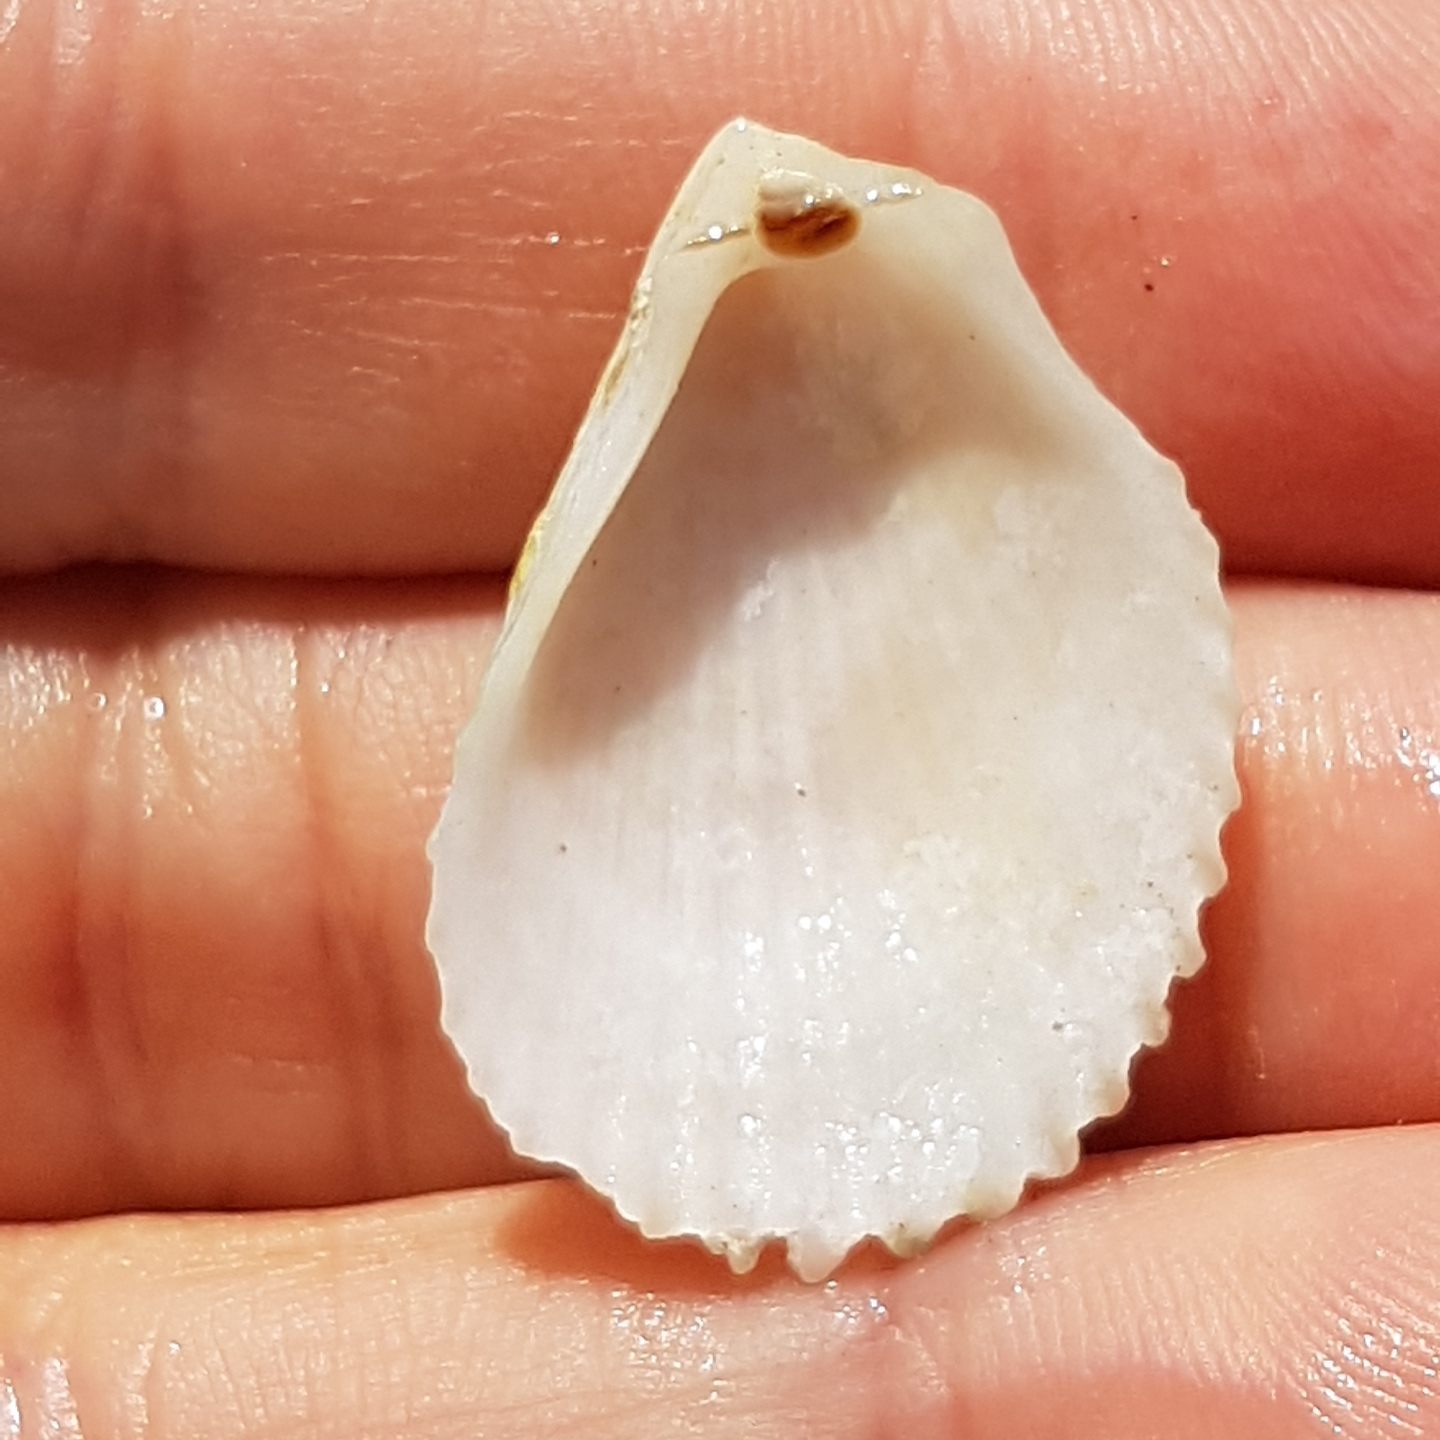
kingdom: Animalia
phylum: Mollusca
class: Bivalvia
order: Limida
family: Limidae
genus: Lima
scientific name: Lima lima
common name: Frilled file shell
